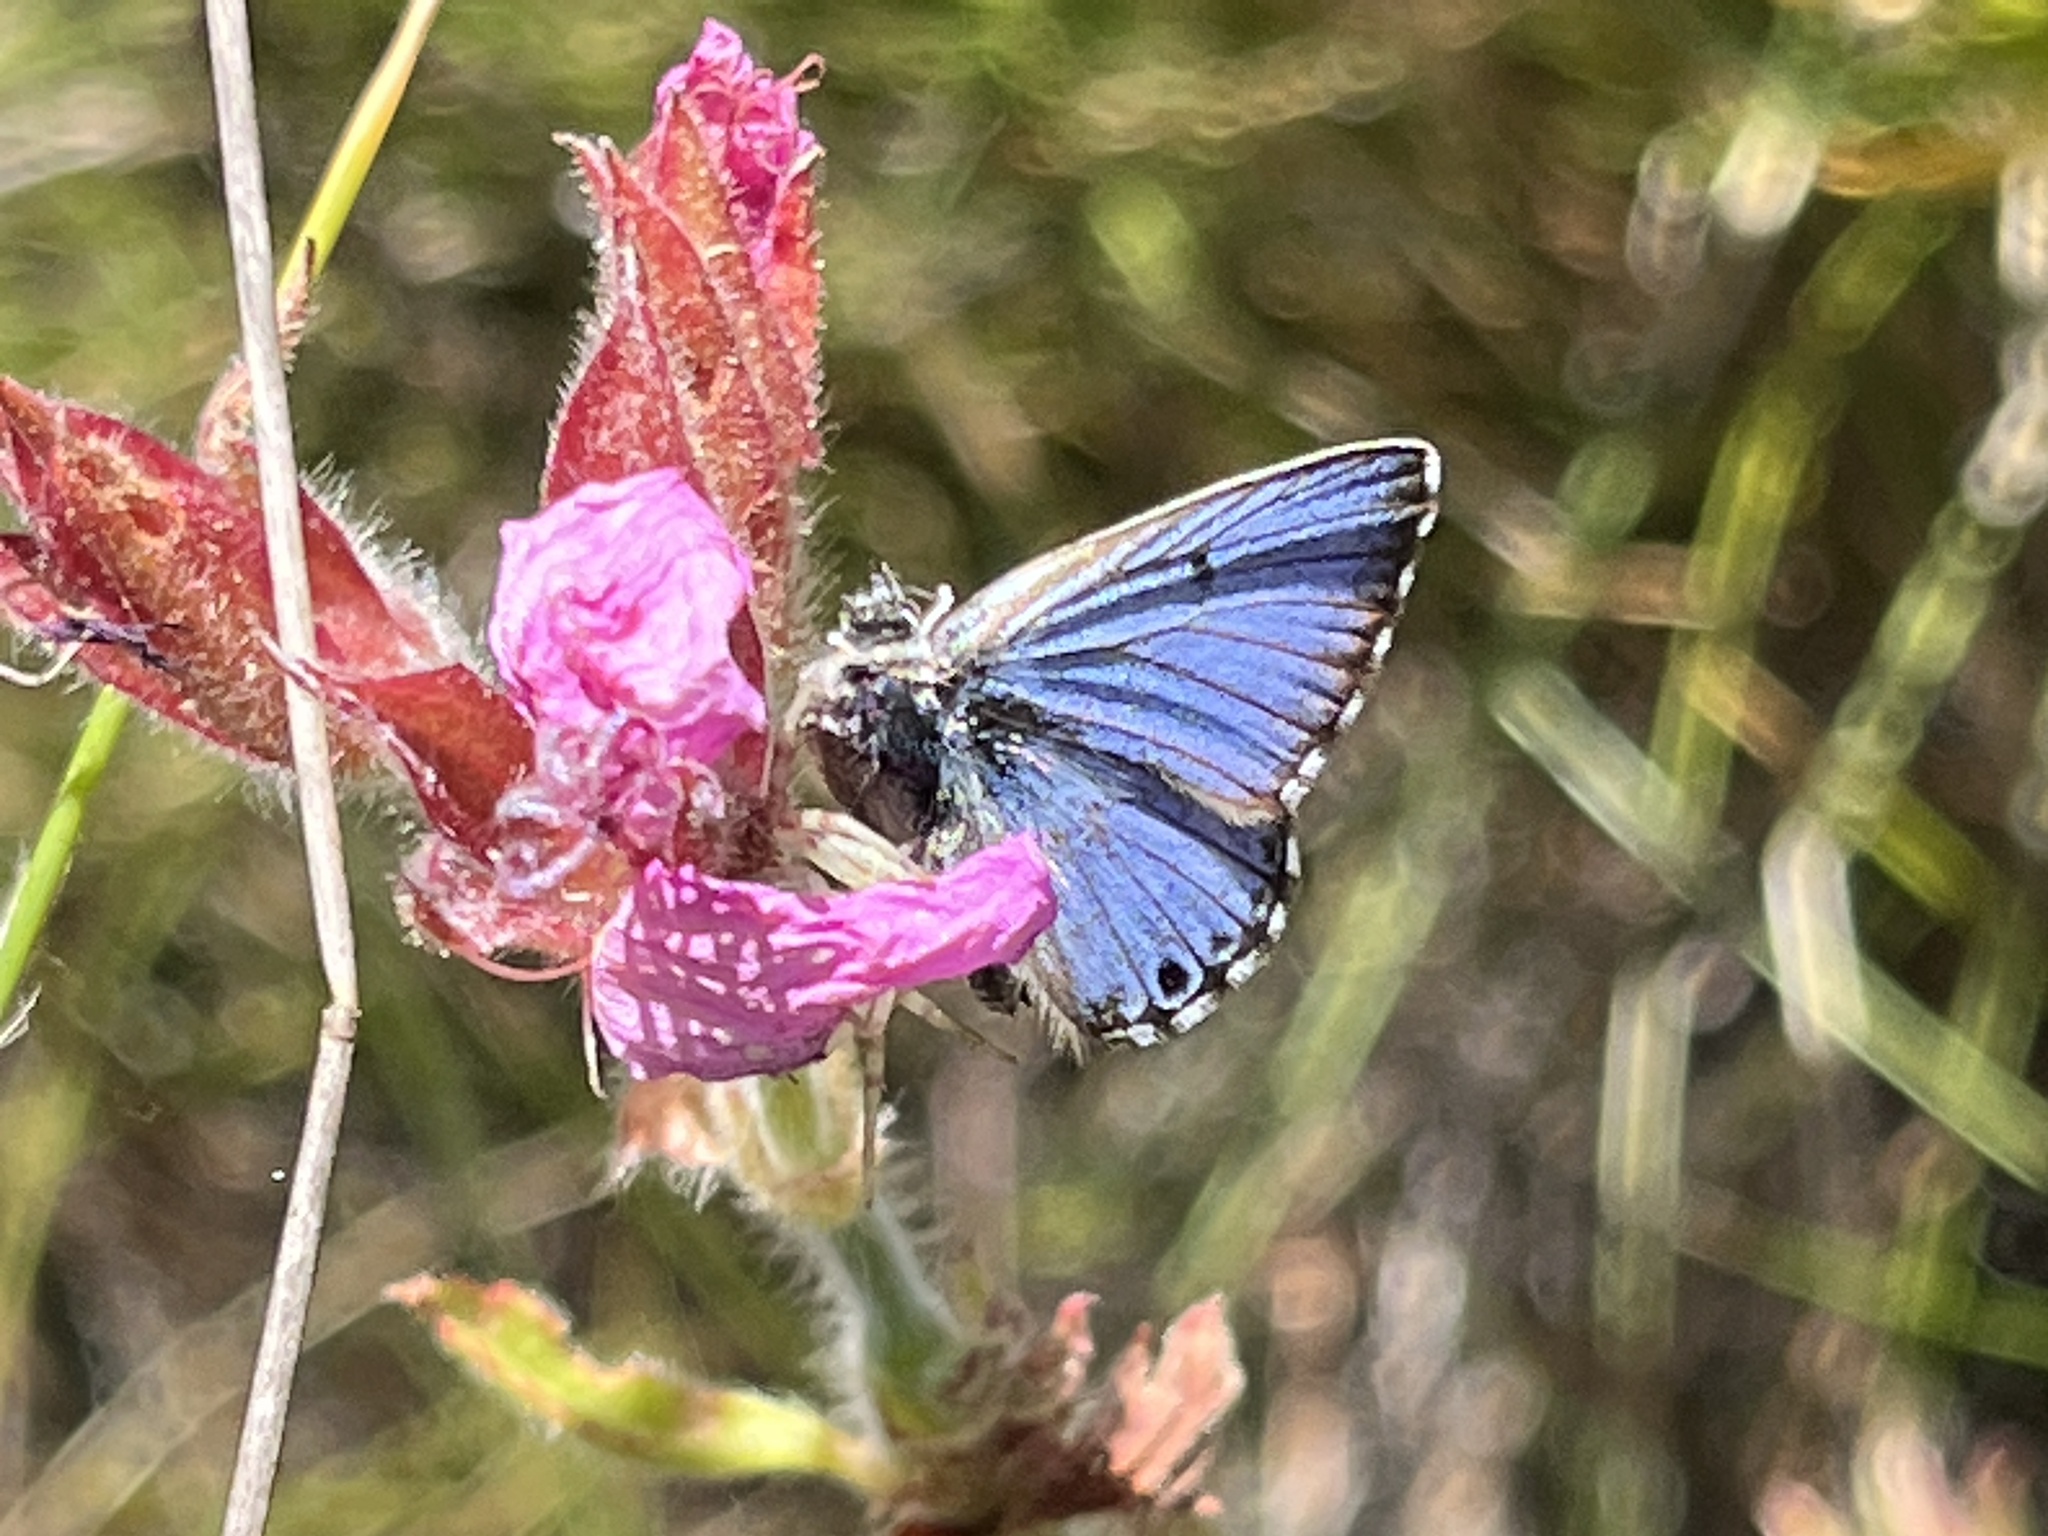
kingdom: Animalia
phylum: Arthropoda
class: Insecta
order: Lepidoptera
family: Lycaenidae
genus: Lepidochrysops
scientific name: Lepidochrysops
